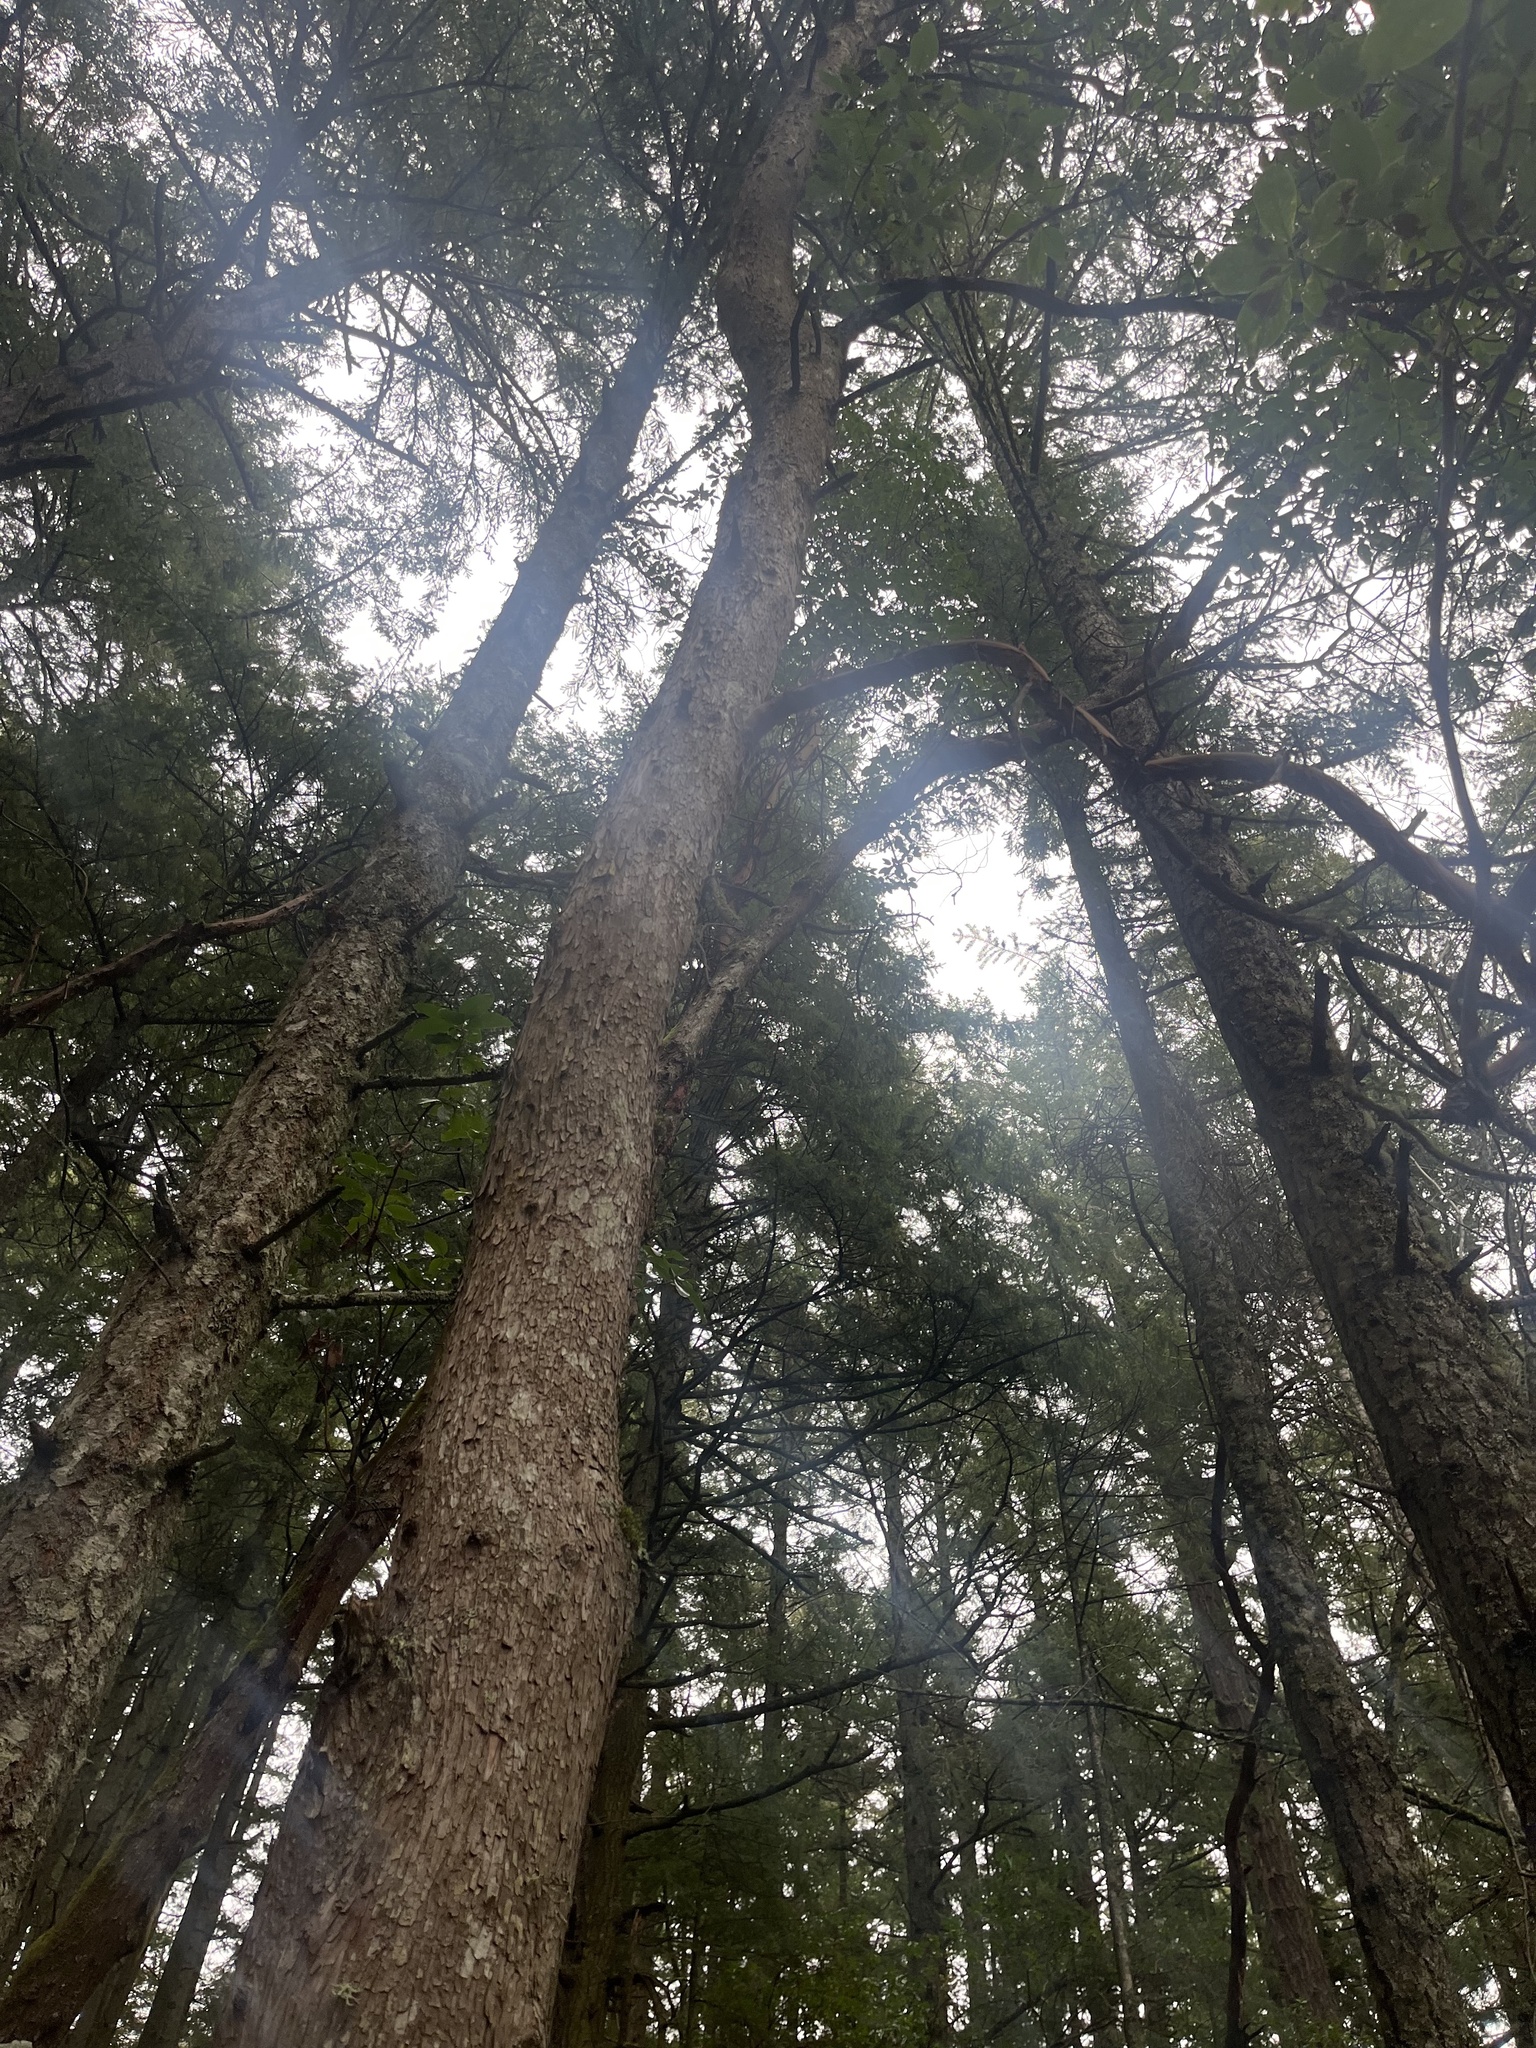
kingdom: Plantae
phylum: Tracheophyta
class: Magnoliopsida
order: Ericales
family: Ericaceae
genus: Arbutus
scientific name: Arbutus menziesii
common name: Pacific madrone
